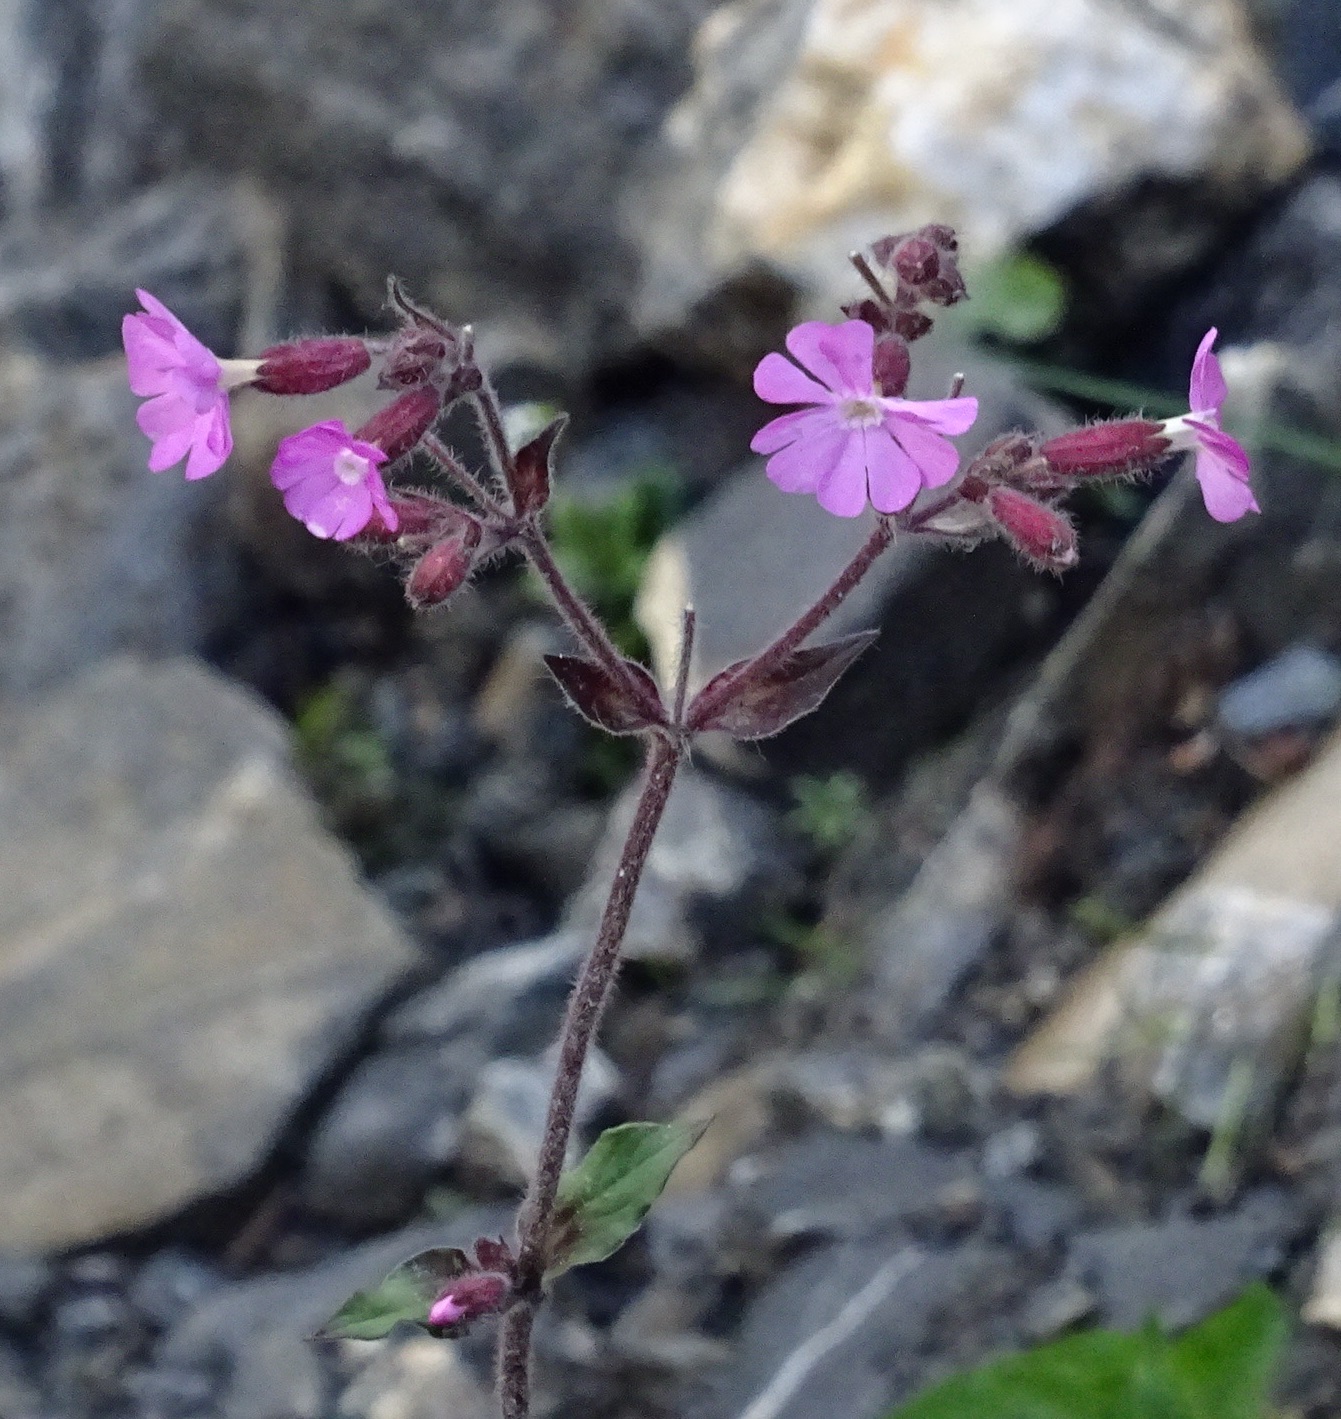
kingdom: Plantae
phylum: Tracheophyta
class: Magnoliopsida
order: Caryophyllales
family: Caryophyllaceae
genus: Silene
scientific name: Silene dioica
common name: Red campion
